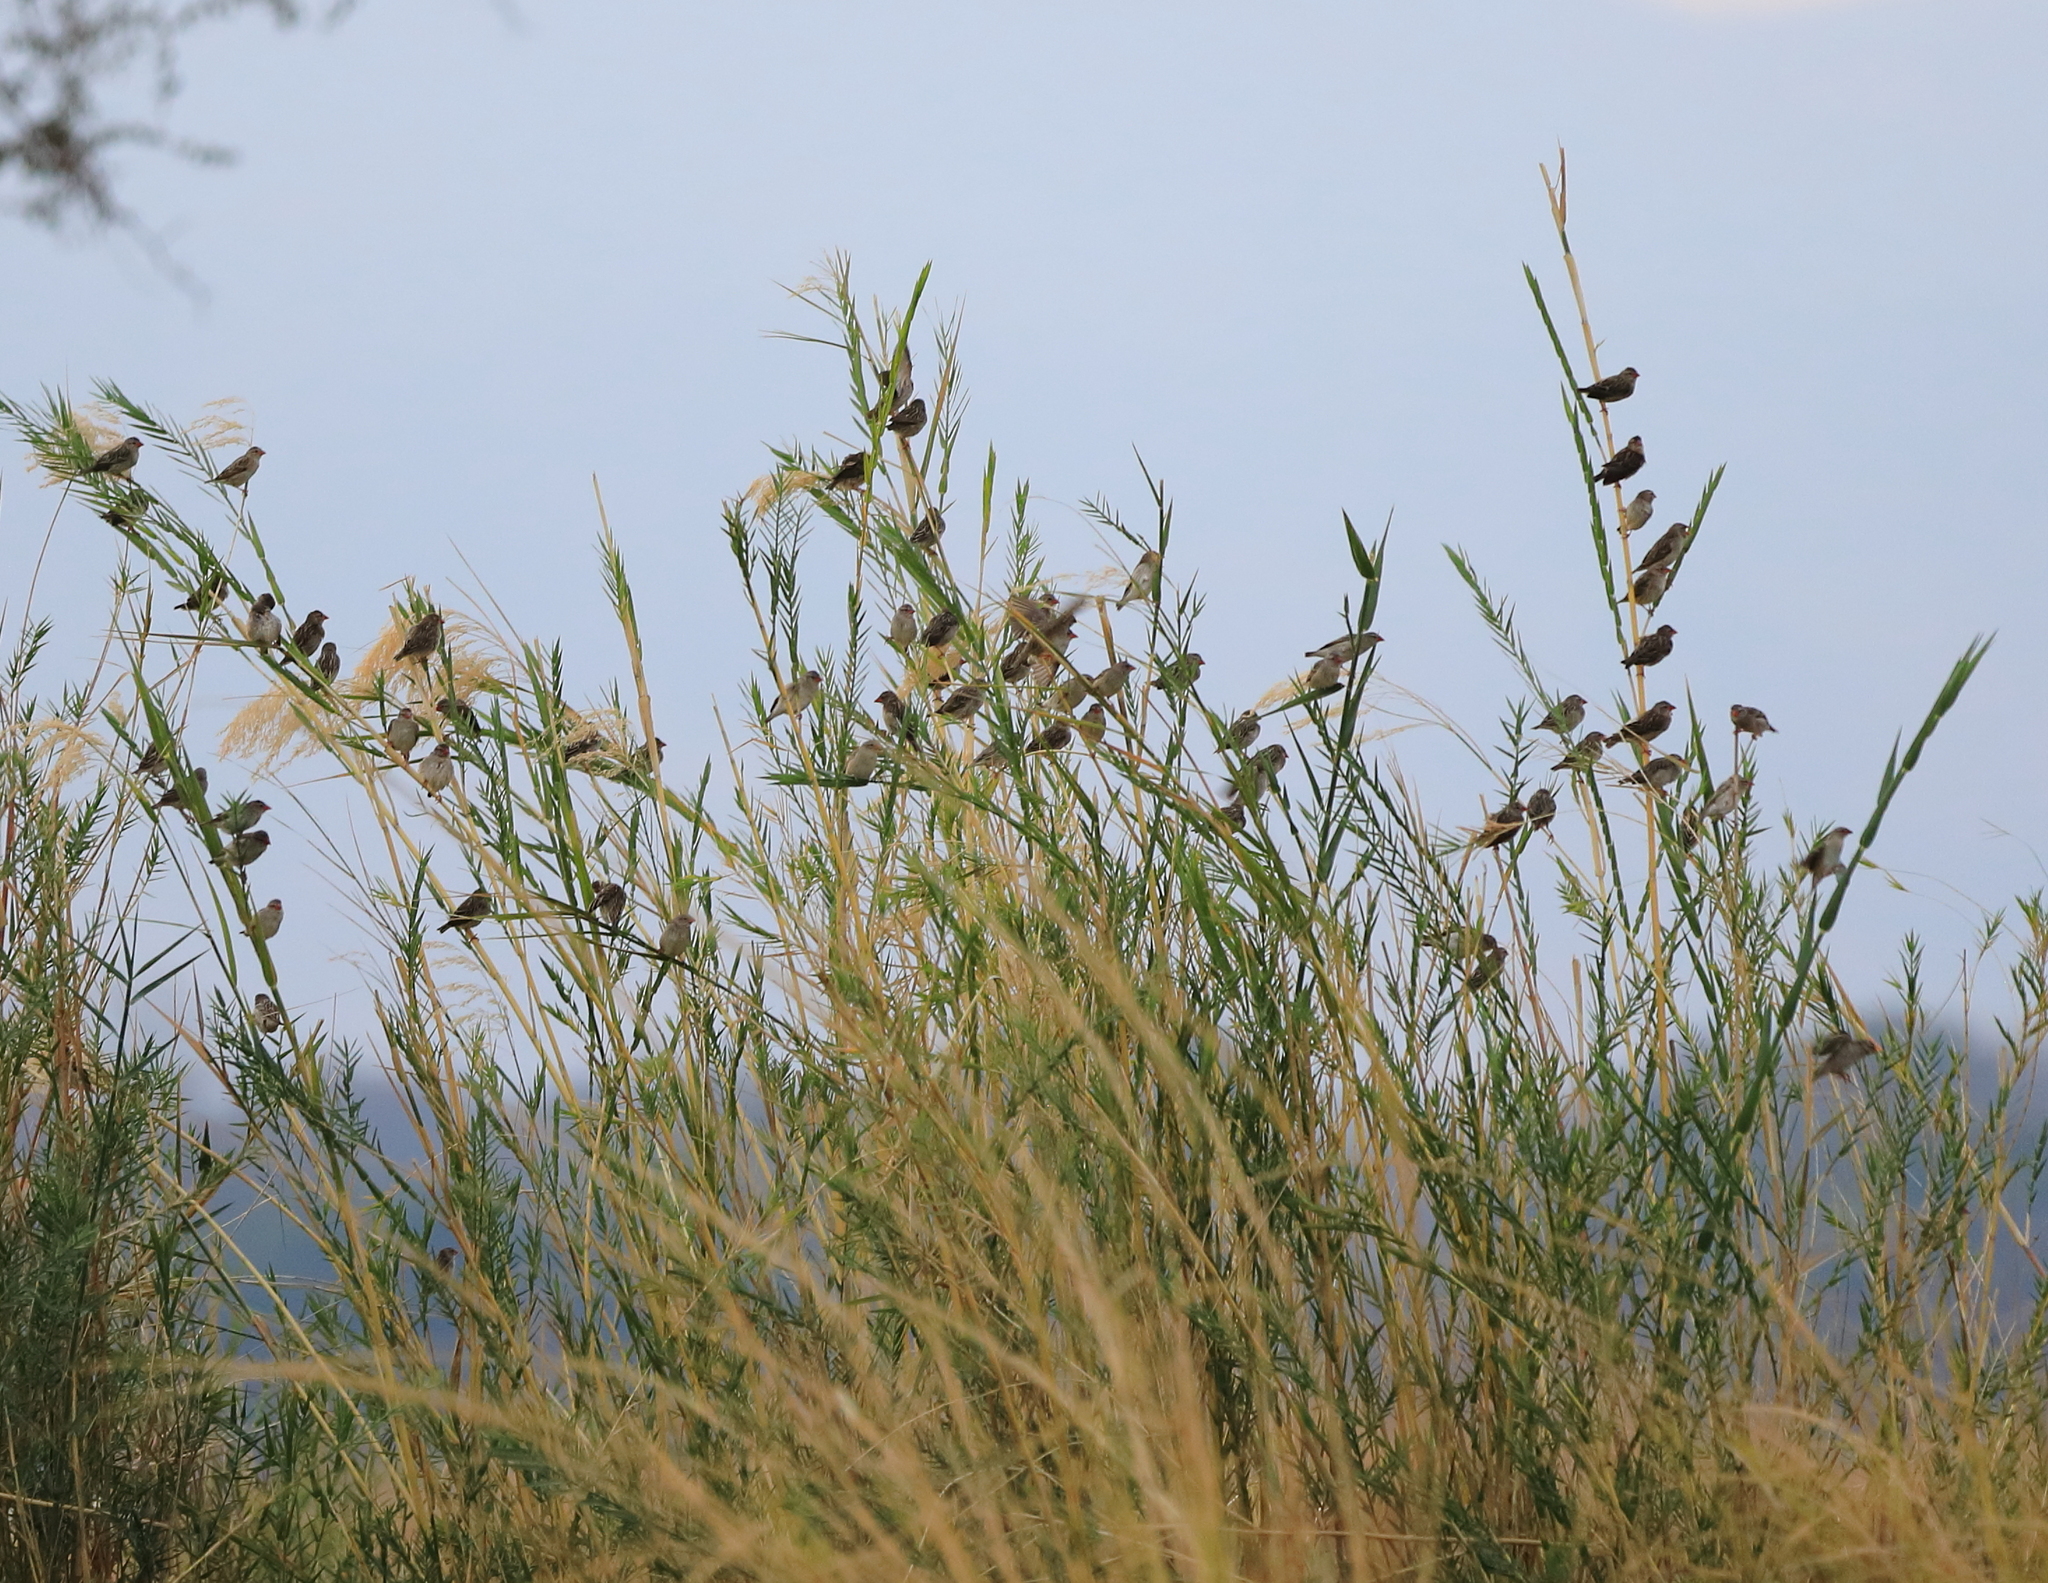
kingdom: Animalia
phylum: Chordata
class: Aves
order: Passeriformes
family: Ploceidae
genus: Quelea
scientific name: Quelea quelea
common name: Red-billed quelea
